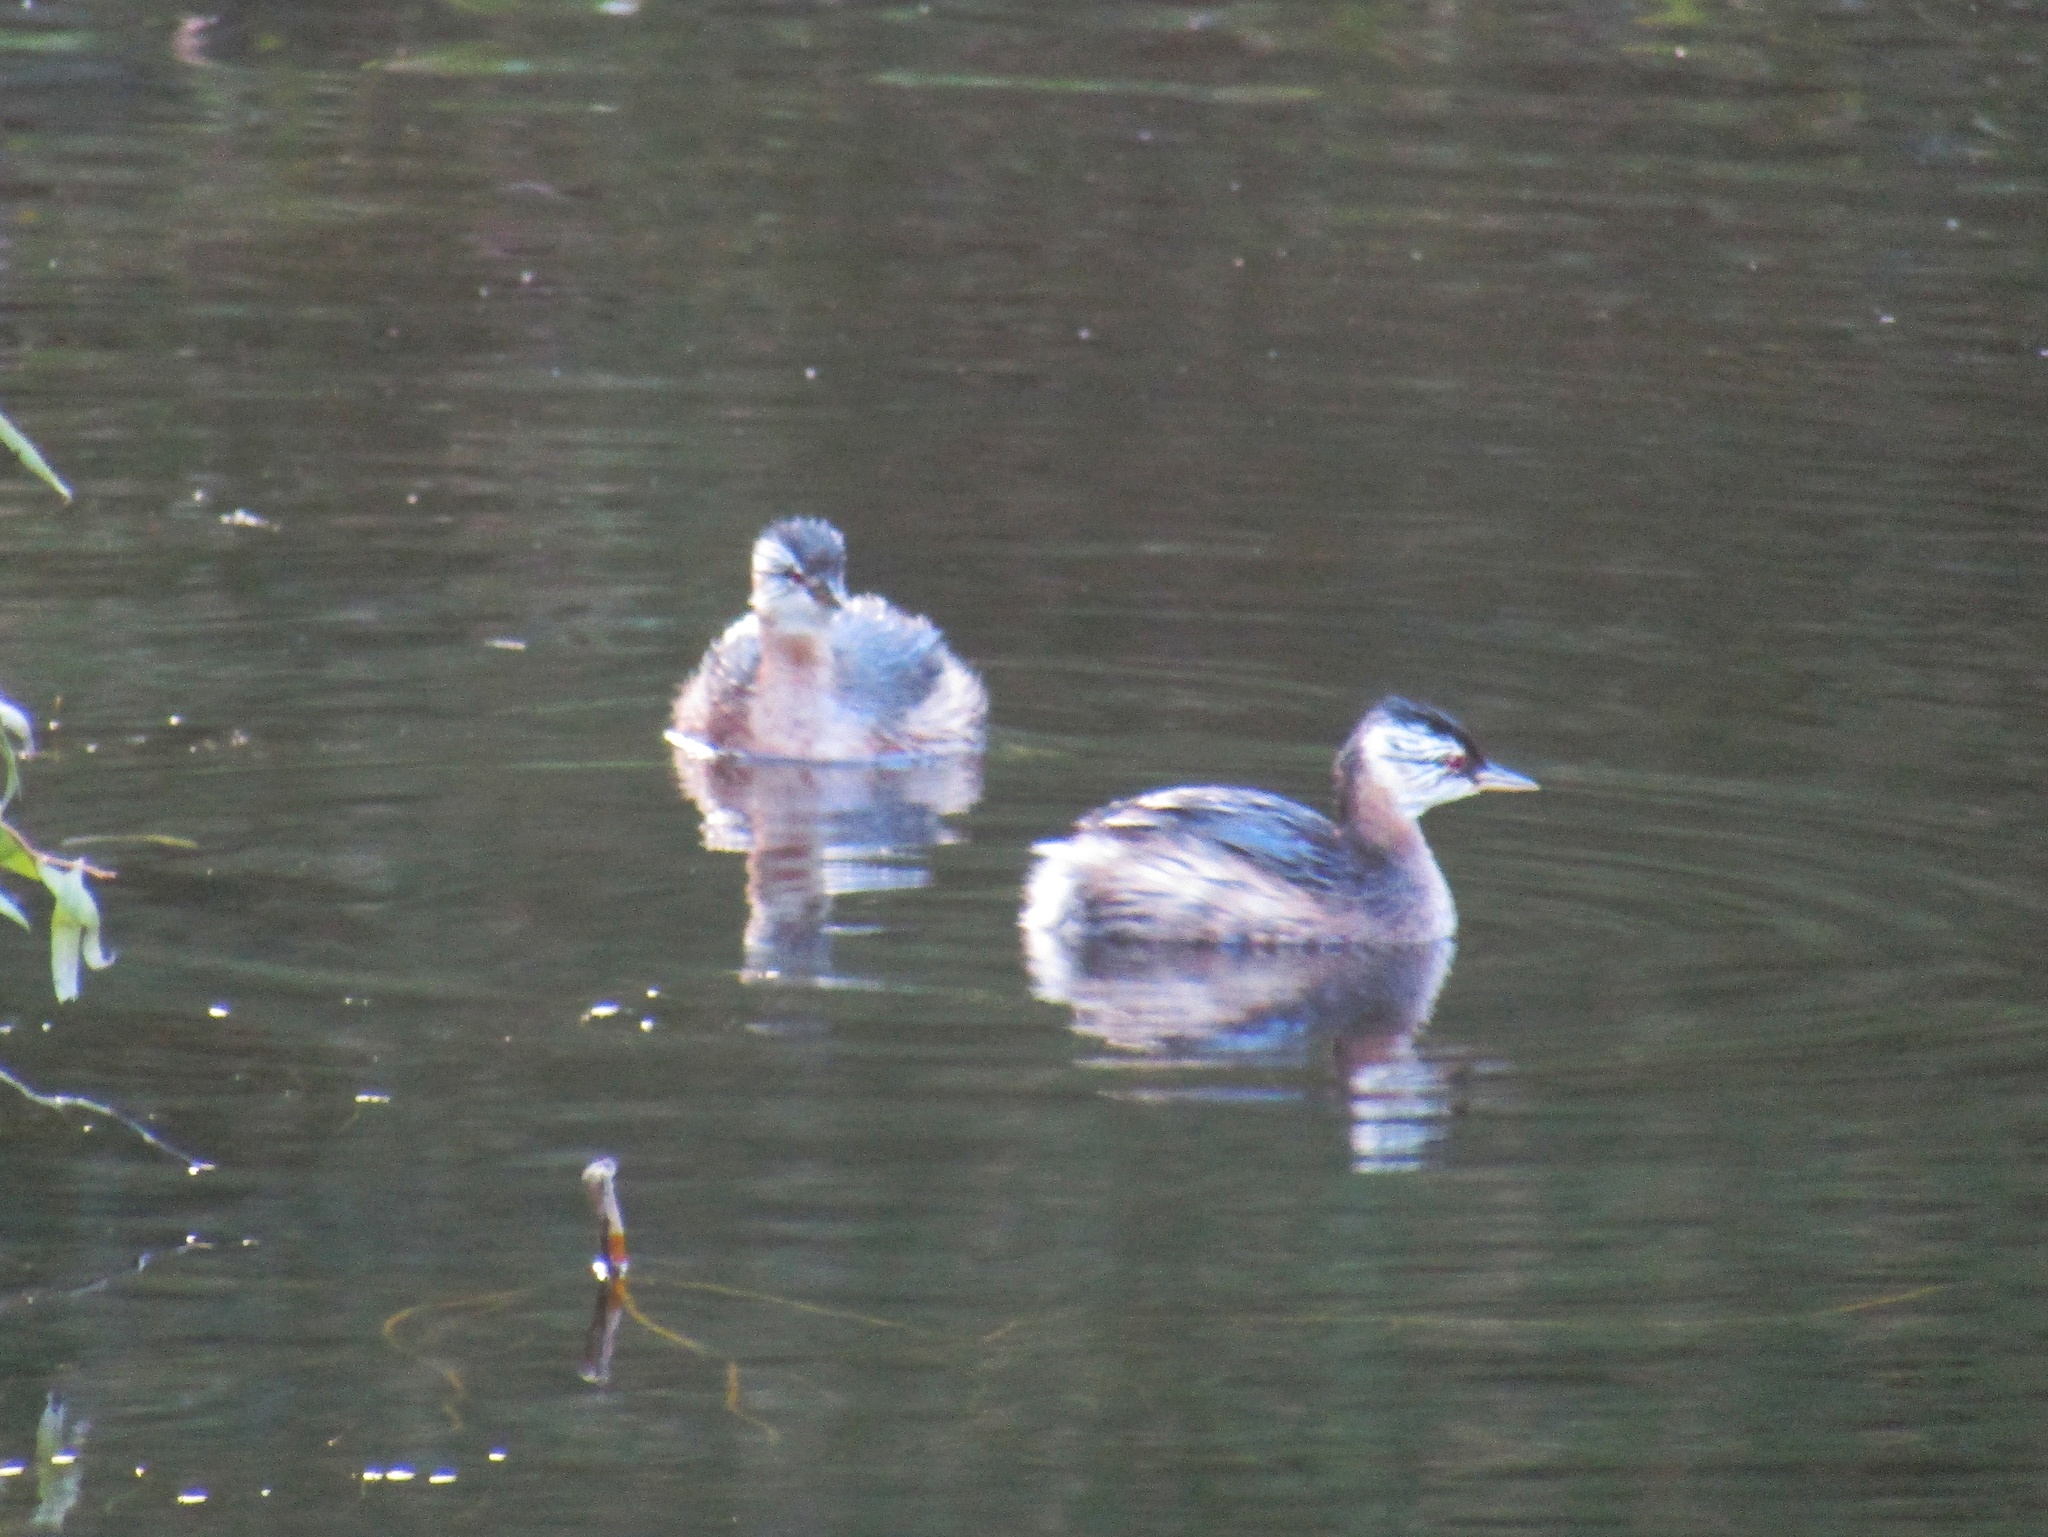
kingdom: Animalia
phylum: Chordata
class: Aves
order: Podicipediformes
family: Podicipedidae
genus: Rollandia
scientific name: Rollandia rolland
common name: White-tufted grebe
